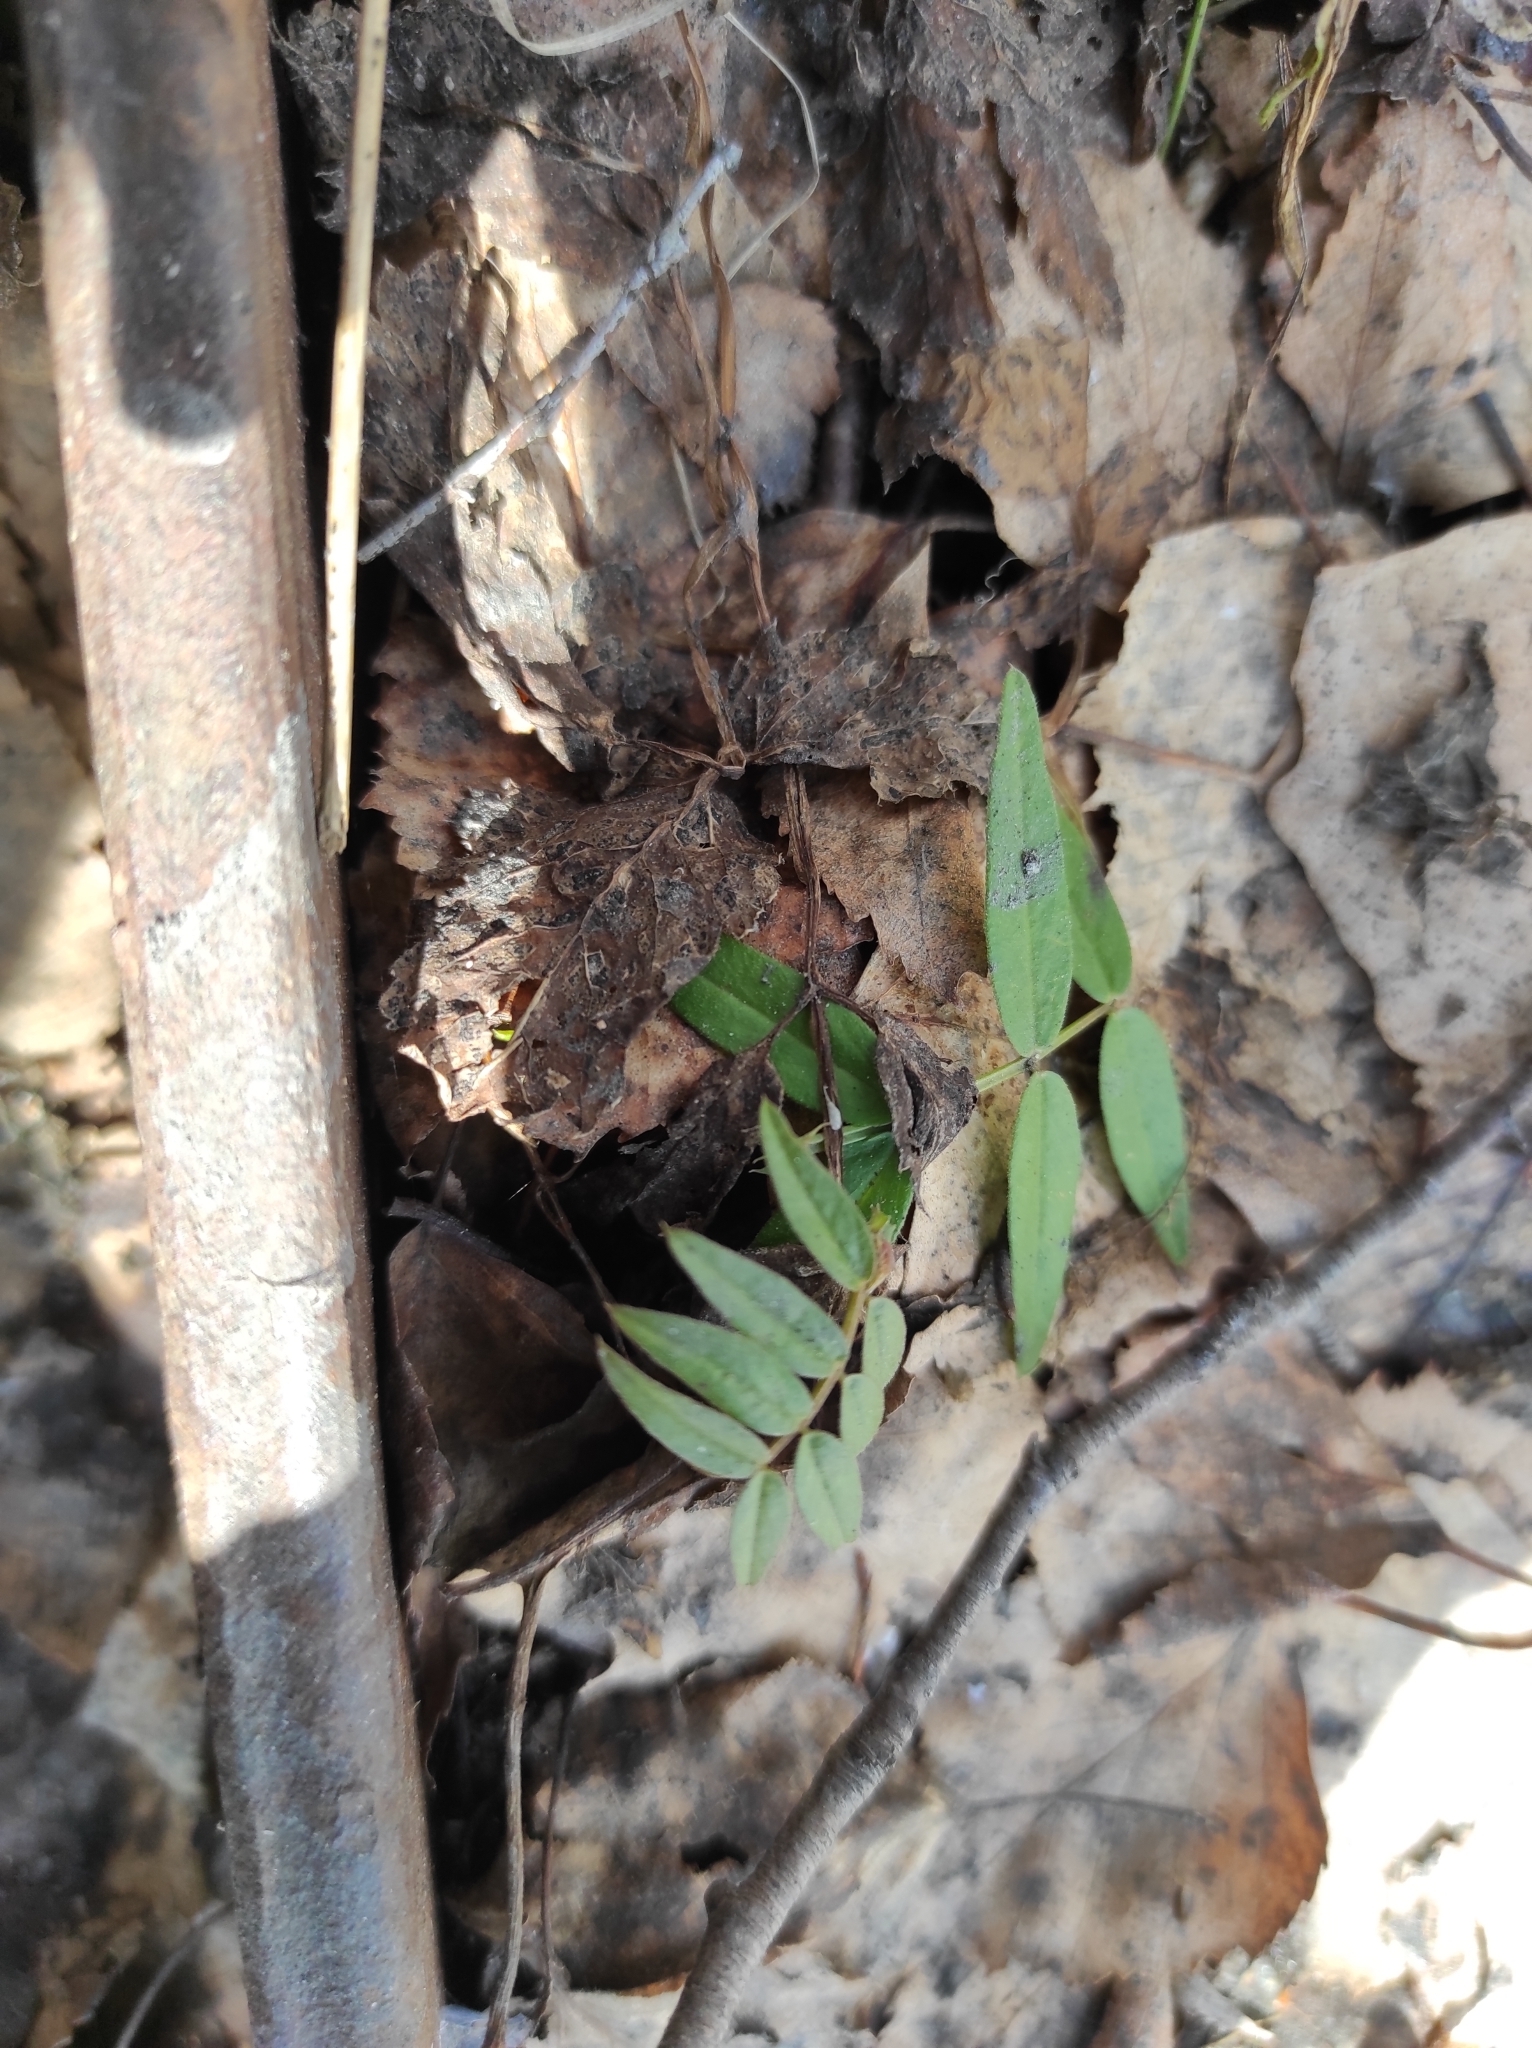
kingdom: Plantae
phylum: Tracheophyta
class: Magnoliopsida
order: Fabales
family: Fabaceae
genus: Vicia
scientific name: Vicia sepium
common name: Bush vetch
